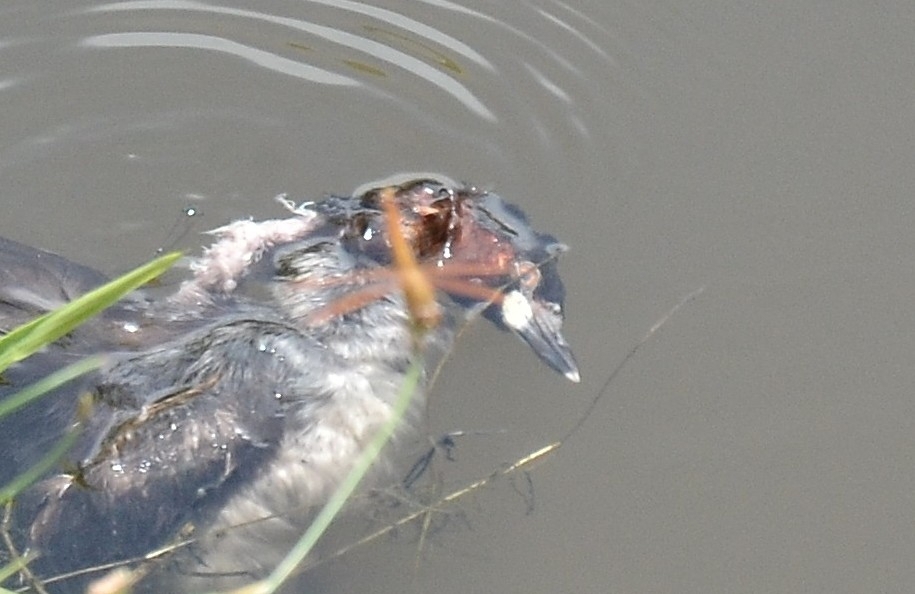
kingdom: Animalia
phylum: Arthropoda
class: Insecta
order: Odonata
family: Libellulidae
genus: Brachythemis
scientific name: Brachythemis contaminata
